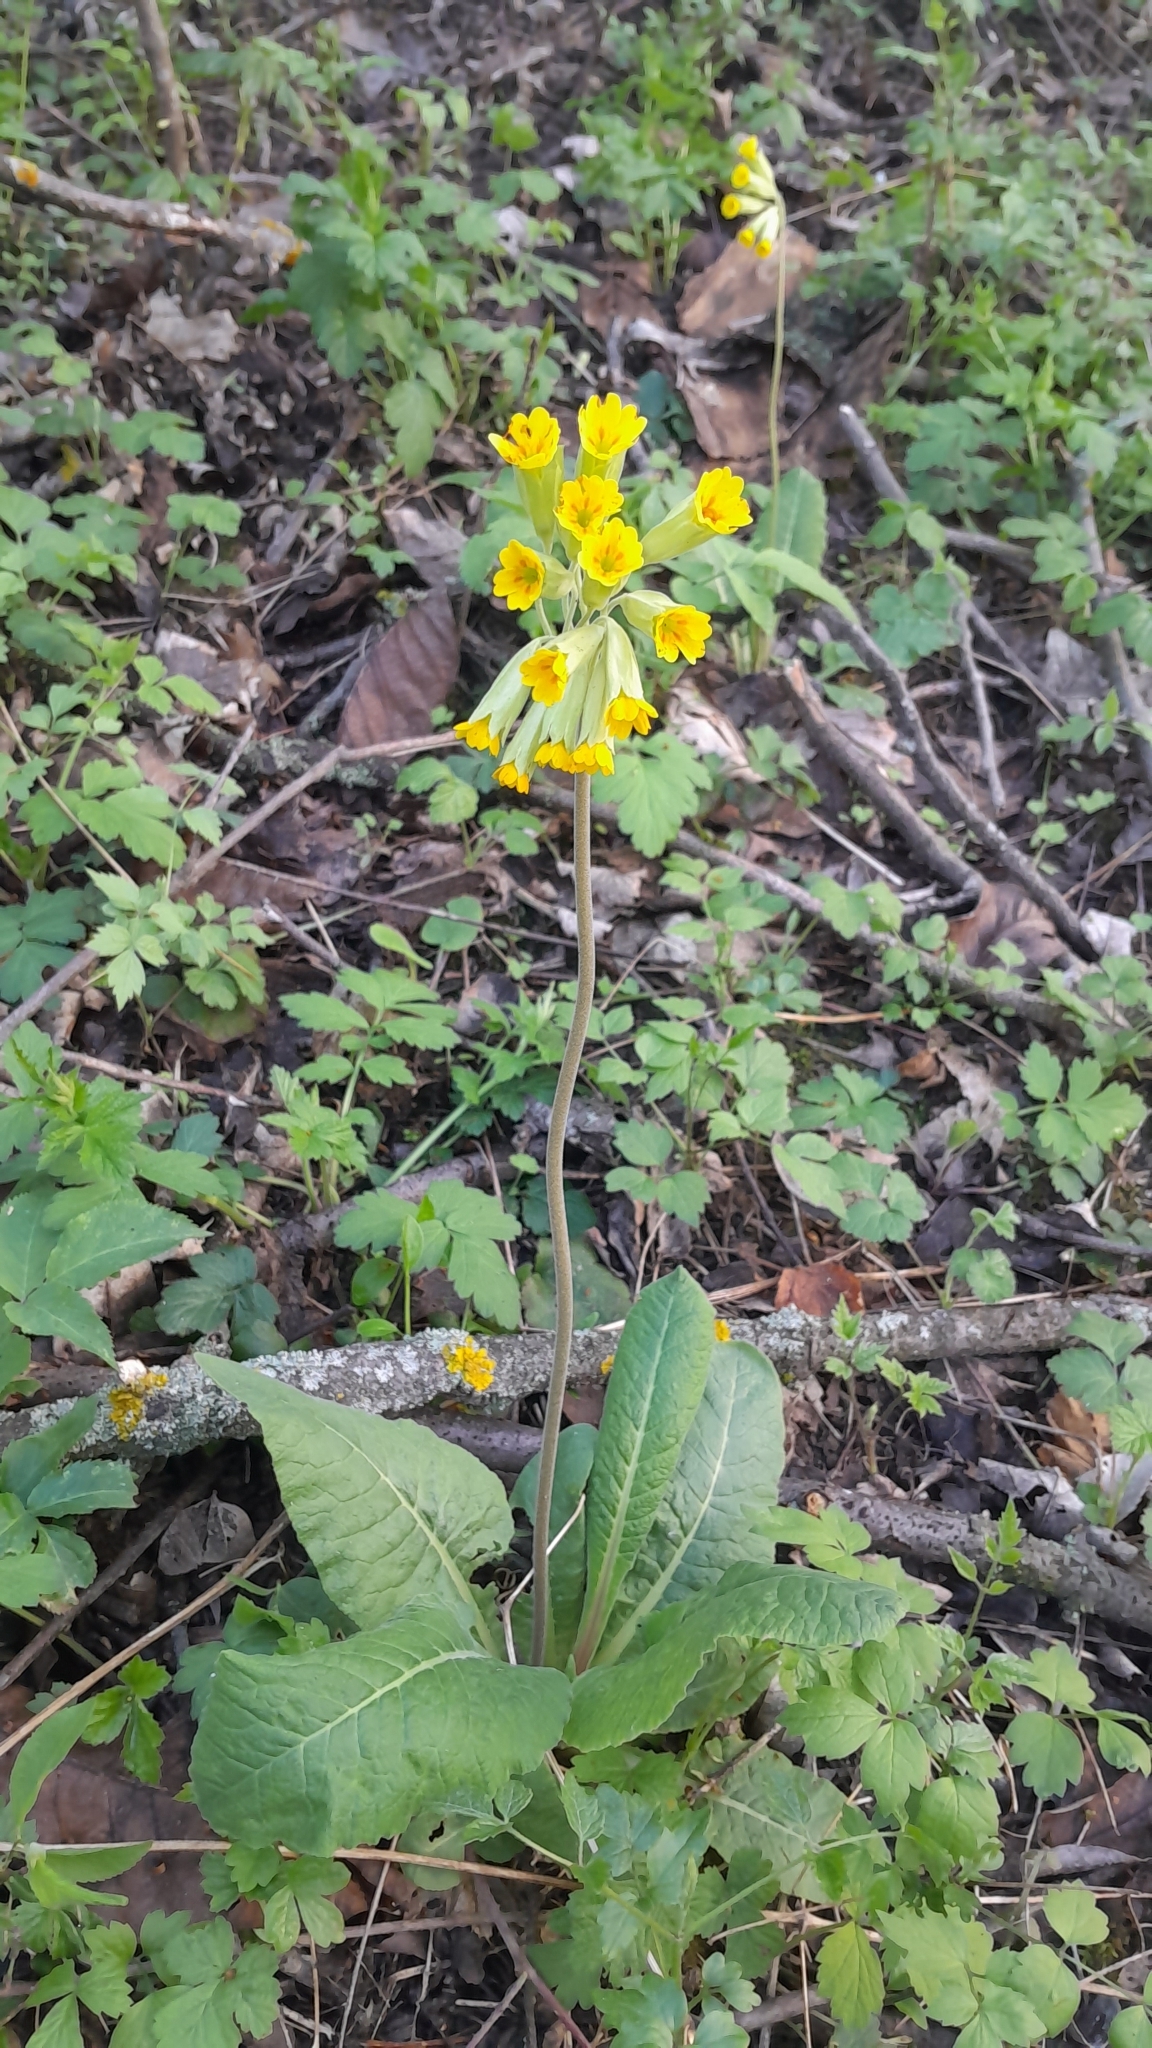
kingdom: Plantae
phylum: Tracheophyta
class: Magnoliopsida
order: Ericales
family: Primulaceae
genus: Primula
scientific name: Primula veris
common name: Cowslip
